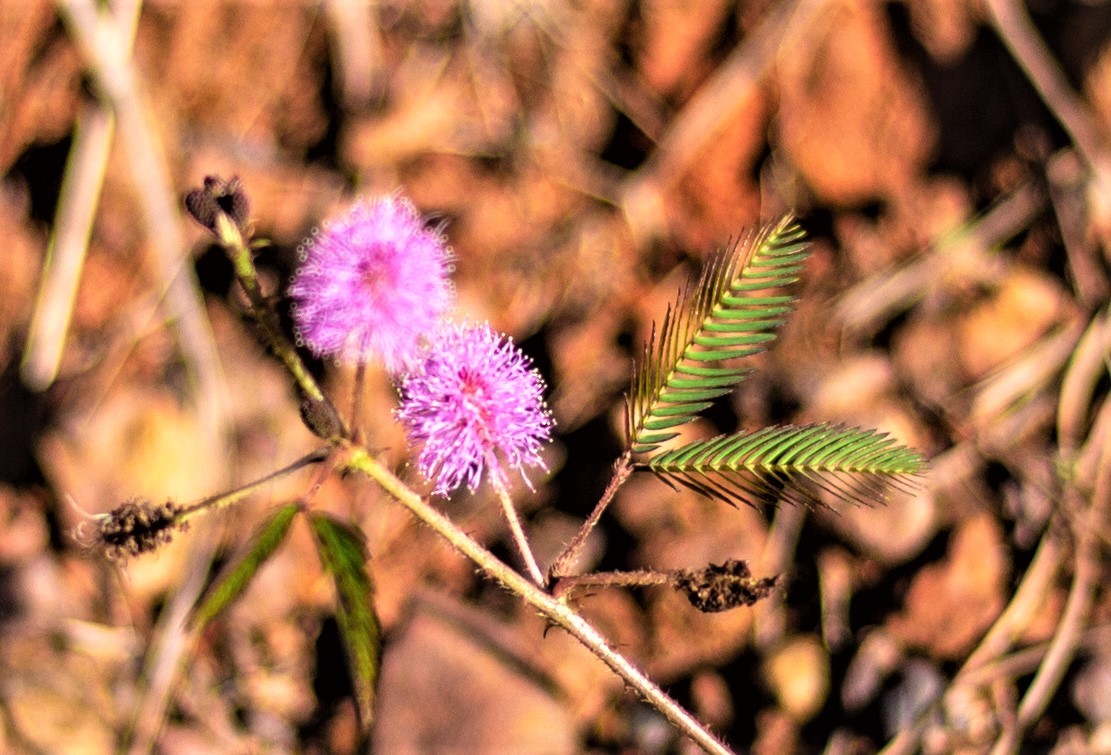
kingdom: Plantae
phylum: Tracheophyta
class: Magnoliopsida
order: Fabales
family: Fabaceae
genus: Mimosa
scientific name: Mimosa pudica
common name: Sensitive plant
